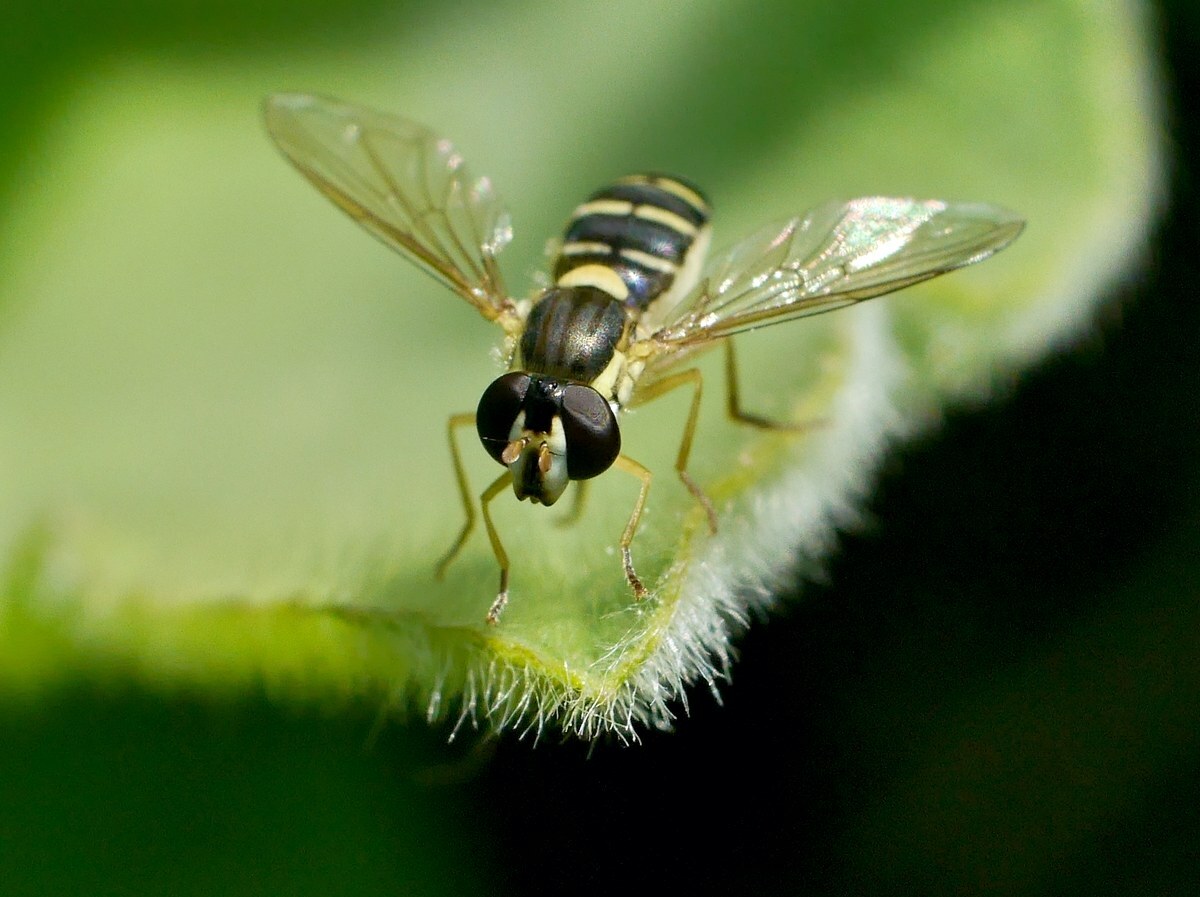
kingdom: Animalia
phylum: Arthropoda
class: Insecta
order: Diptera
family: Syrphidae
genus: Sphaerophoria
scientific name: Sphaerophoria
